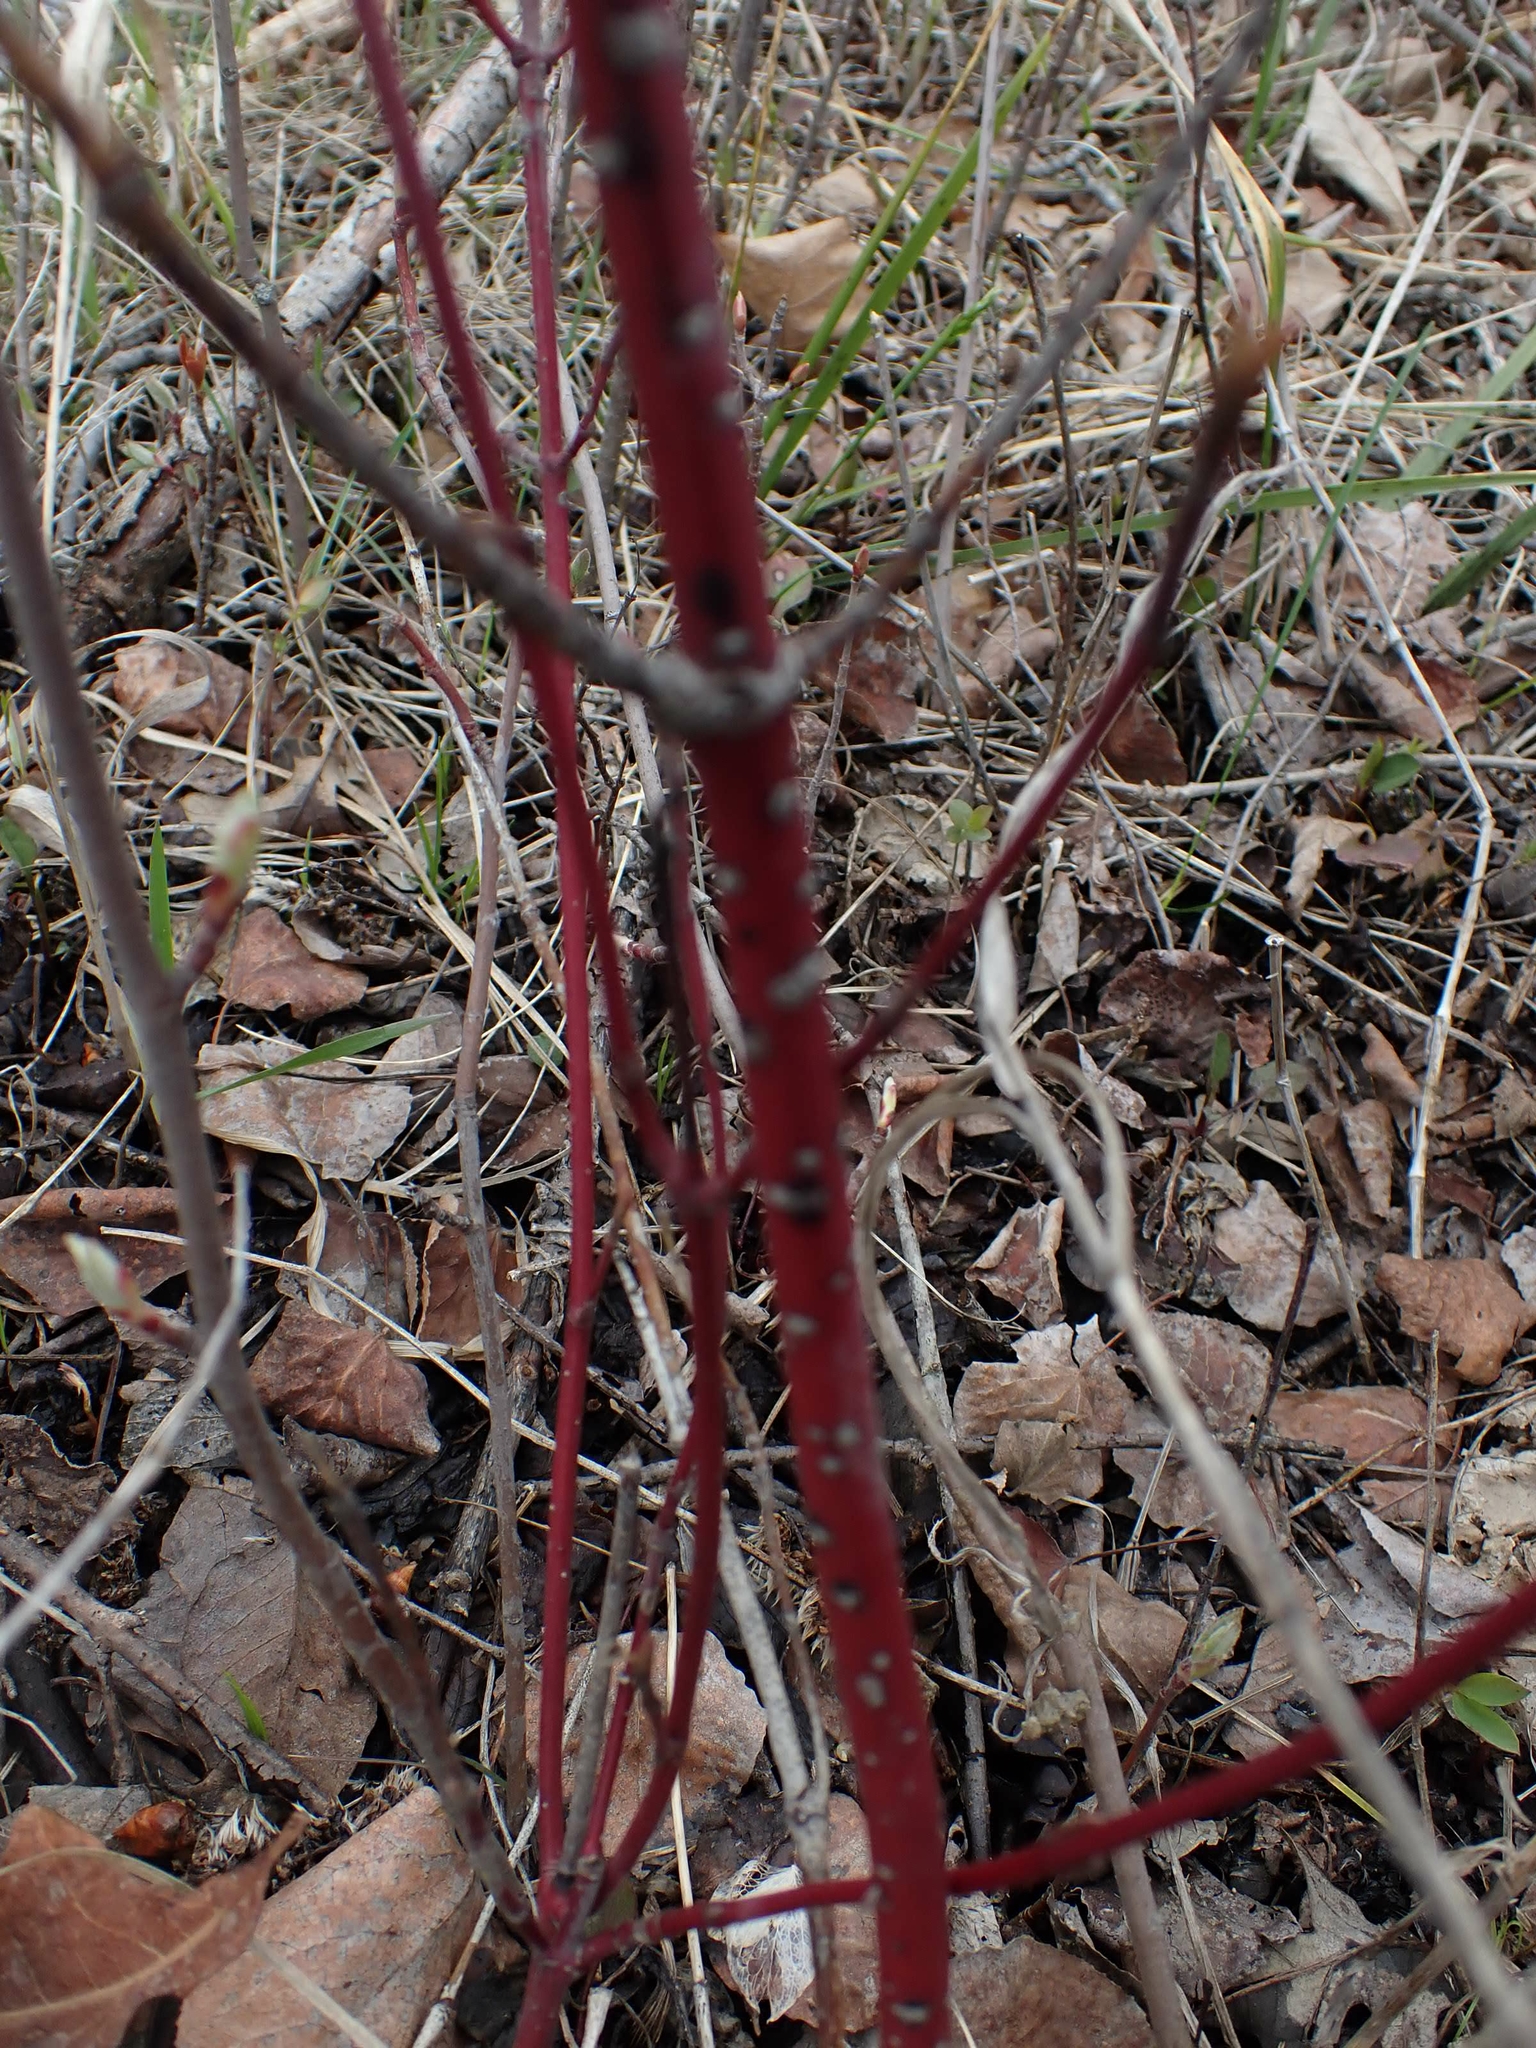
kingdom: Plantae
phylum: Tracheophyta
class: Magnoliopsida
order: Cornales
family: Cornaceae
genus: Cornus
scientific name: Cornus sericea
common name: Red-osier dogwood
